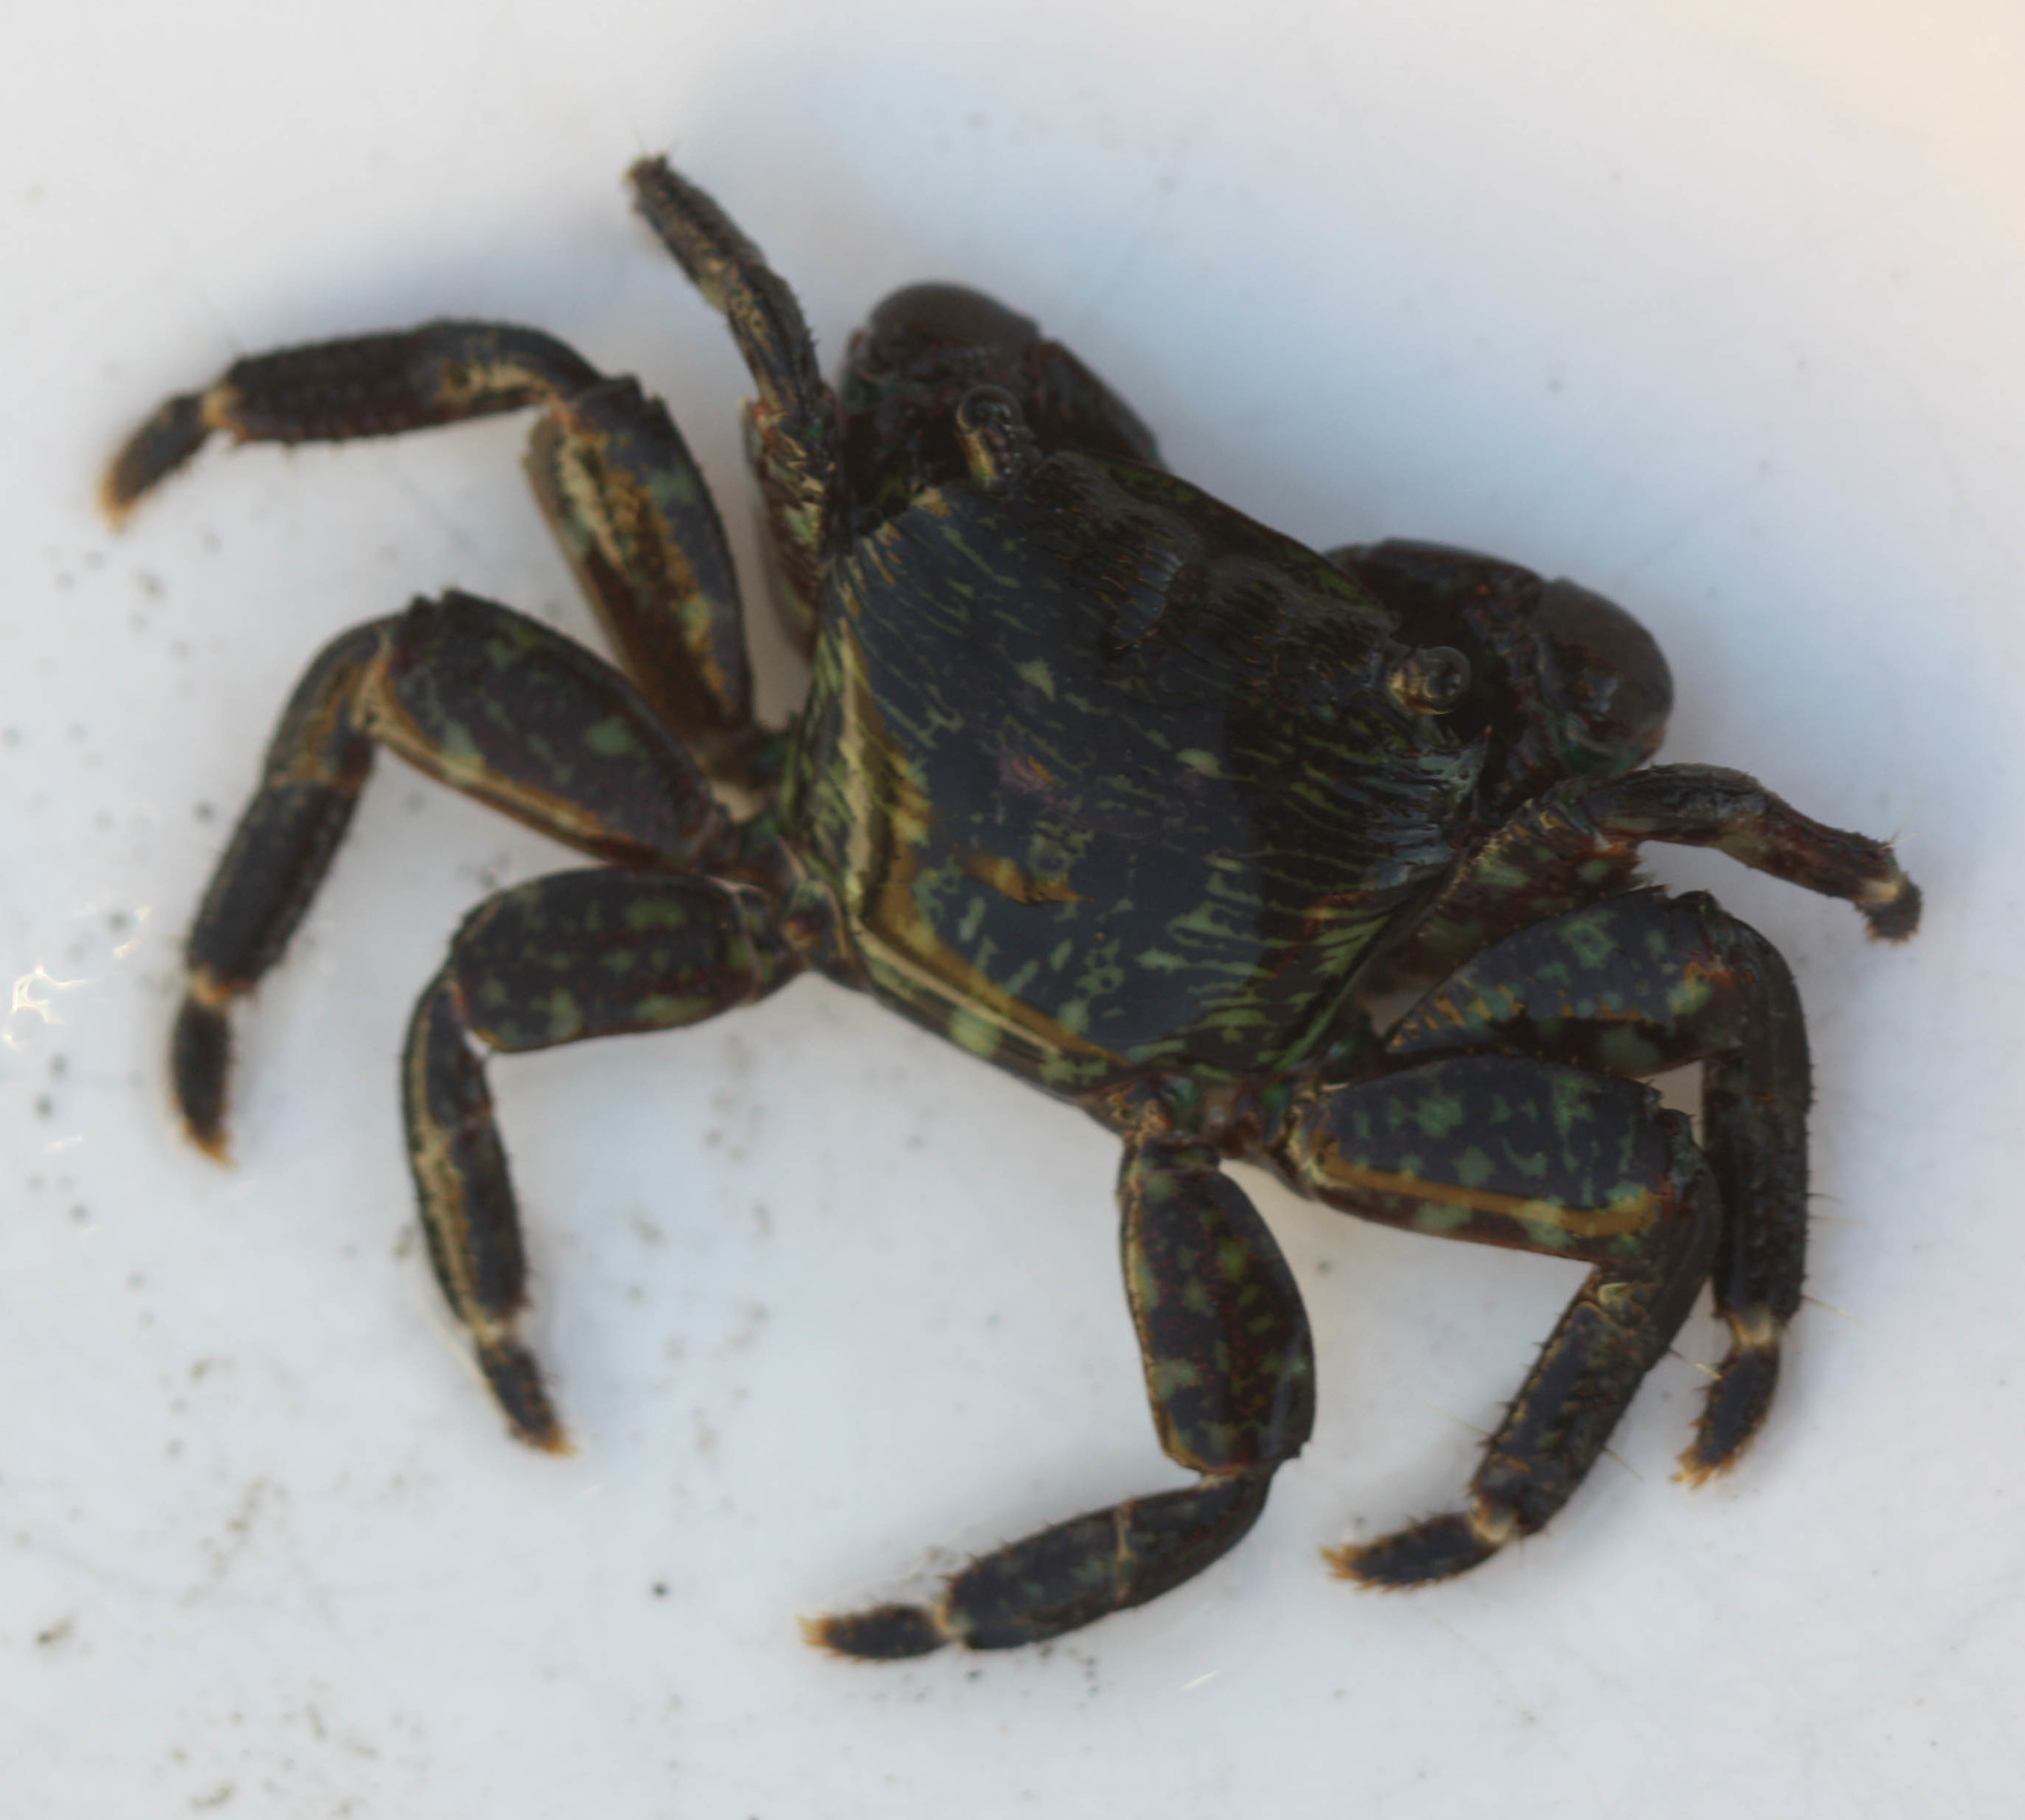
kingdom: Animalia
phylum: Arthropoda
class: Malacostraca
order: Decapoda
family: Grapsidae
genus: Pachygrapsus
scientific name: Pachygrapsus crassipes
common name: Striped shore crab
